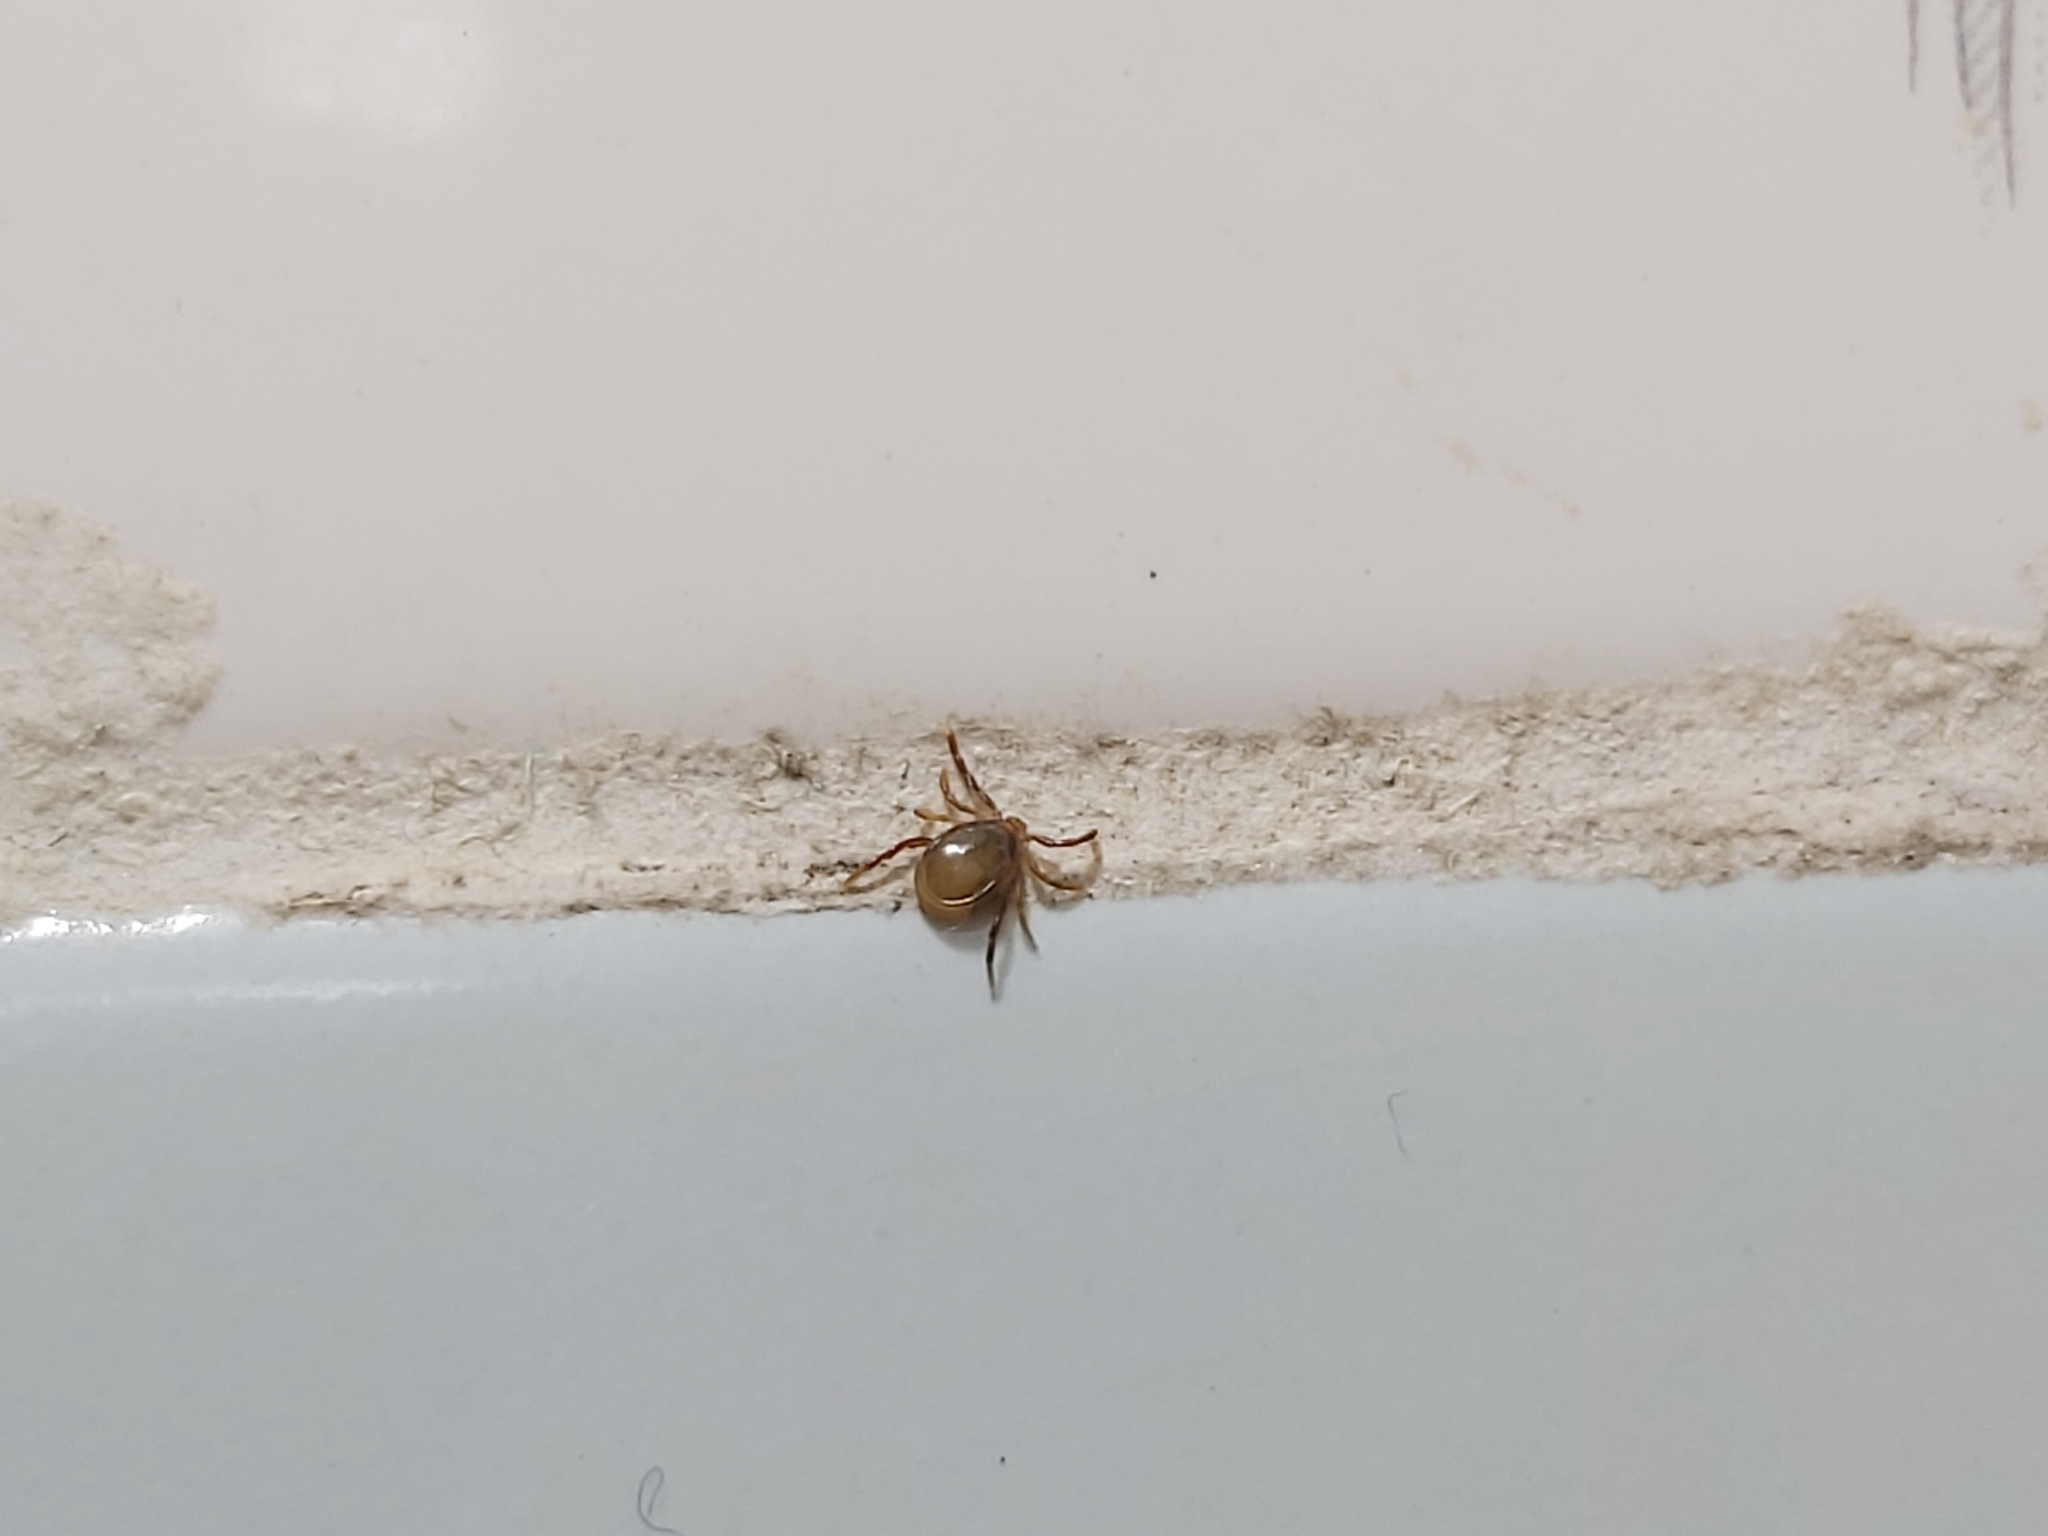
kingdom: Animalia
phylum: Arthropoda
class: Arachnida
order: Ixodida
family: Ixodidae
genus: Ixodes
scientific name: Ixodes holocyclus
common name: Australian paralysis tick
